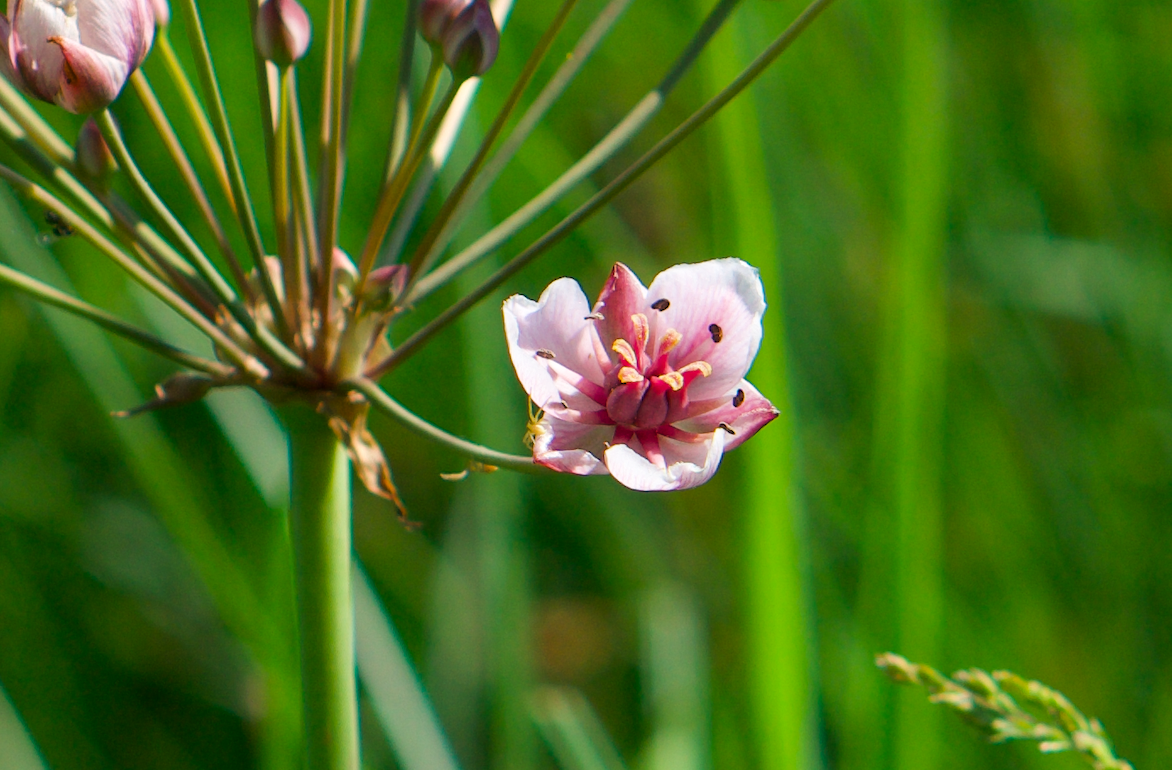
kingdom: Plantae
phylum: Tracheophyta
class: Liliopsida
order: Alismatales
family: Butomaceae
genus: Butomus
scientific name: Butomus umbellatus
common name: Flowering-rush
